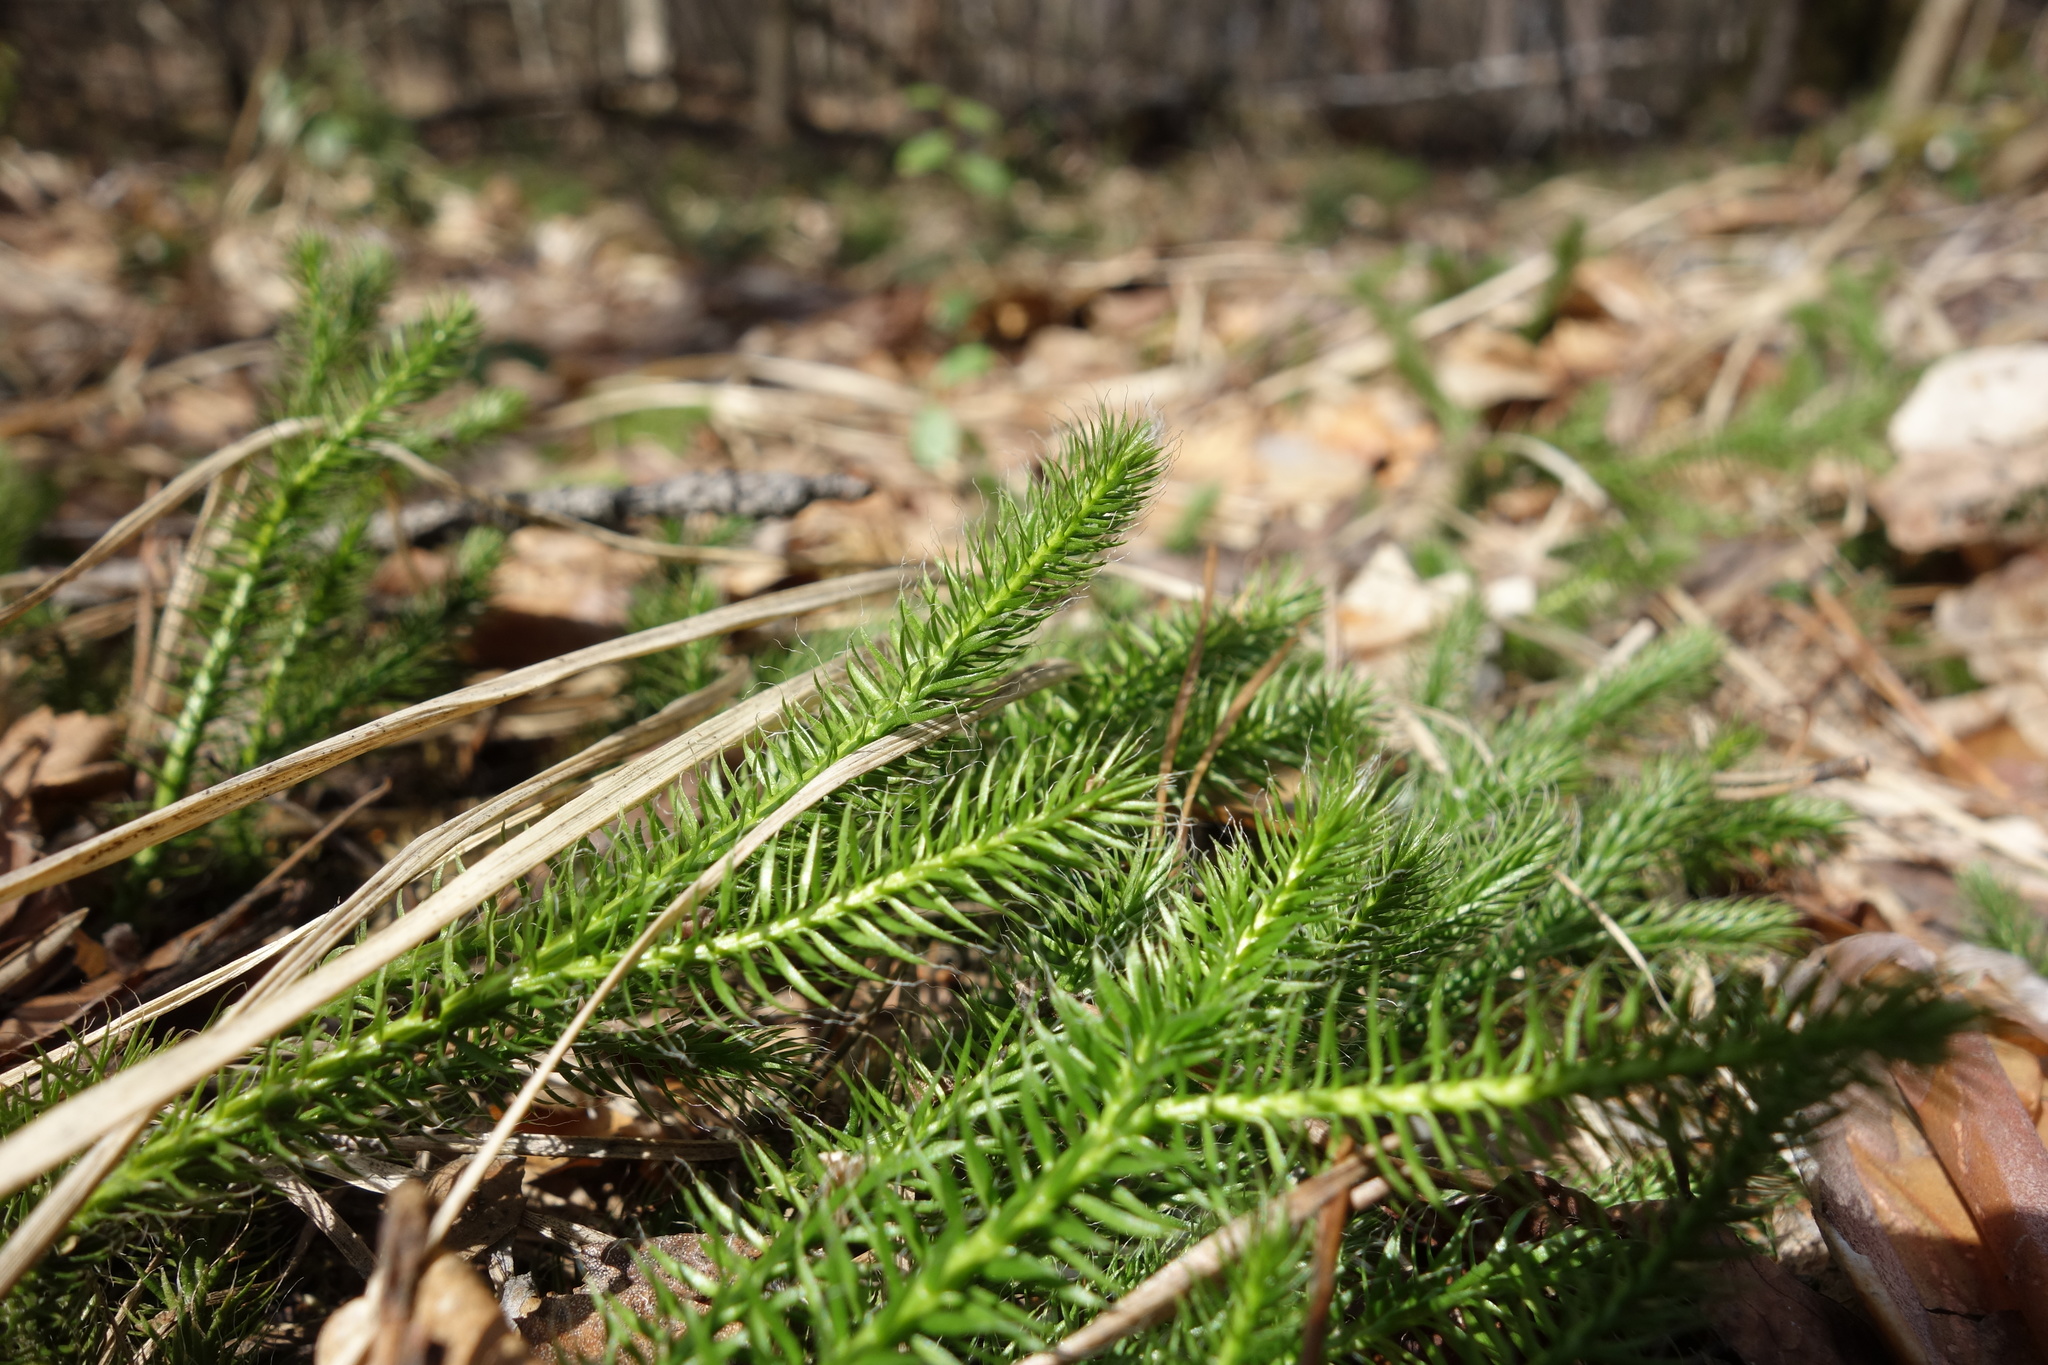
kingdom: Plantae
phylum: Tracheophyta
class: Lycopodiopsida
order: Lycopodiales
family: Lycopodiaceae
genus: Lycopodium
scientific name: Lycopodium clavatum
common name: Stag's-horn clubmoss
